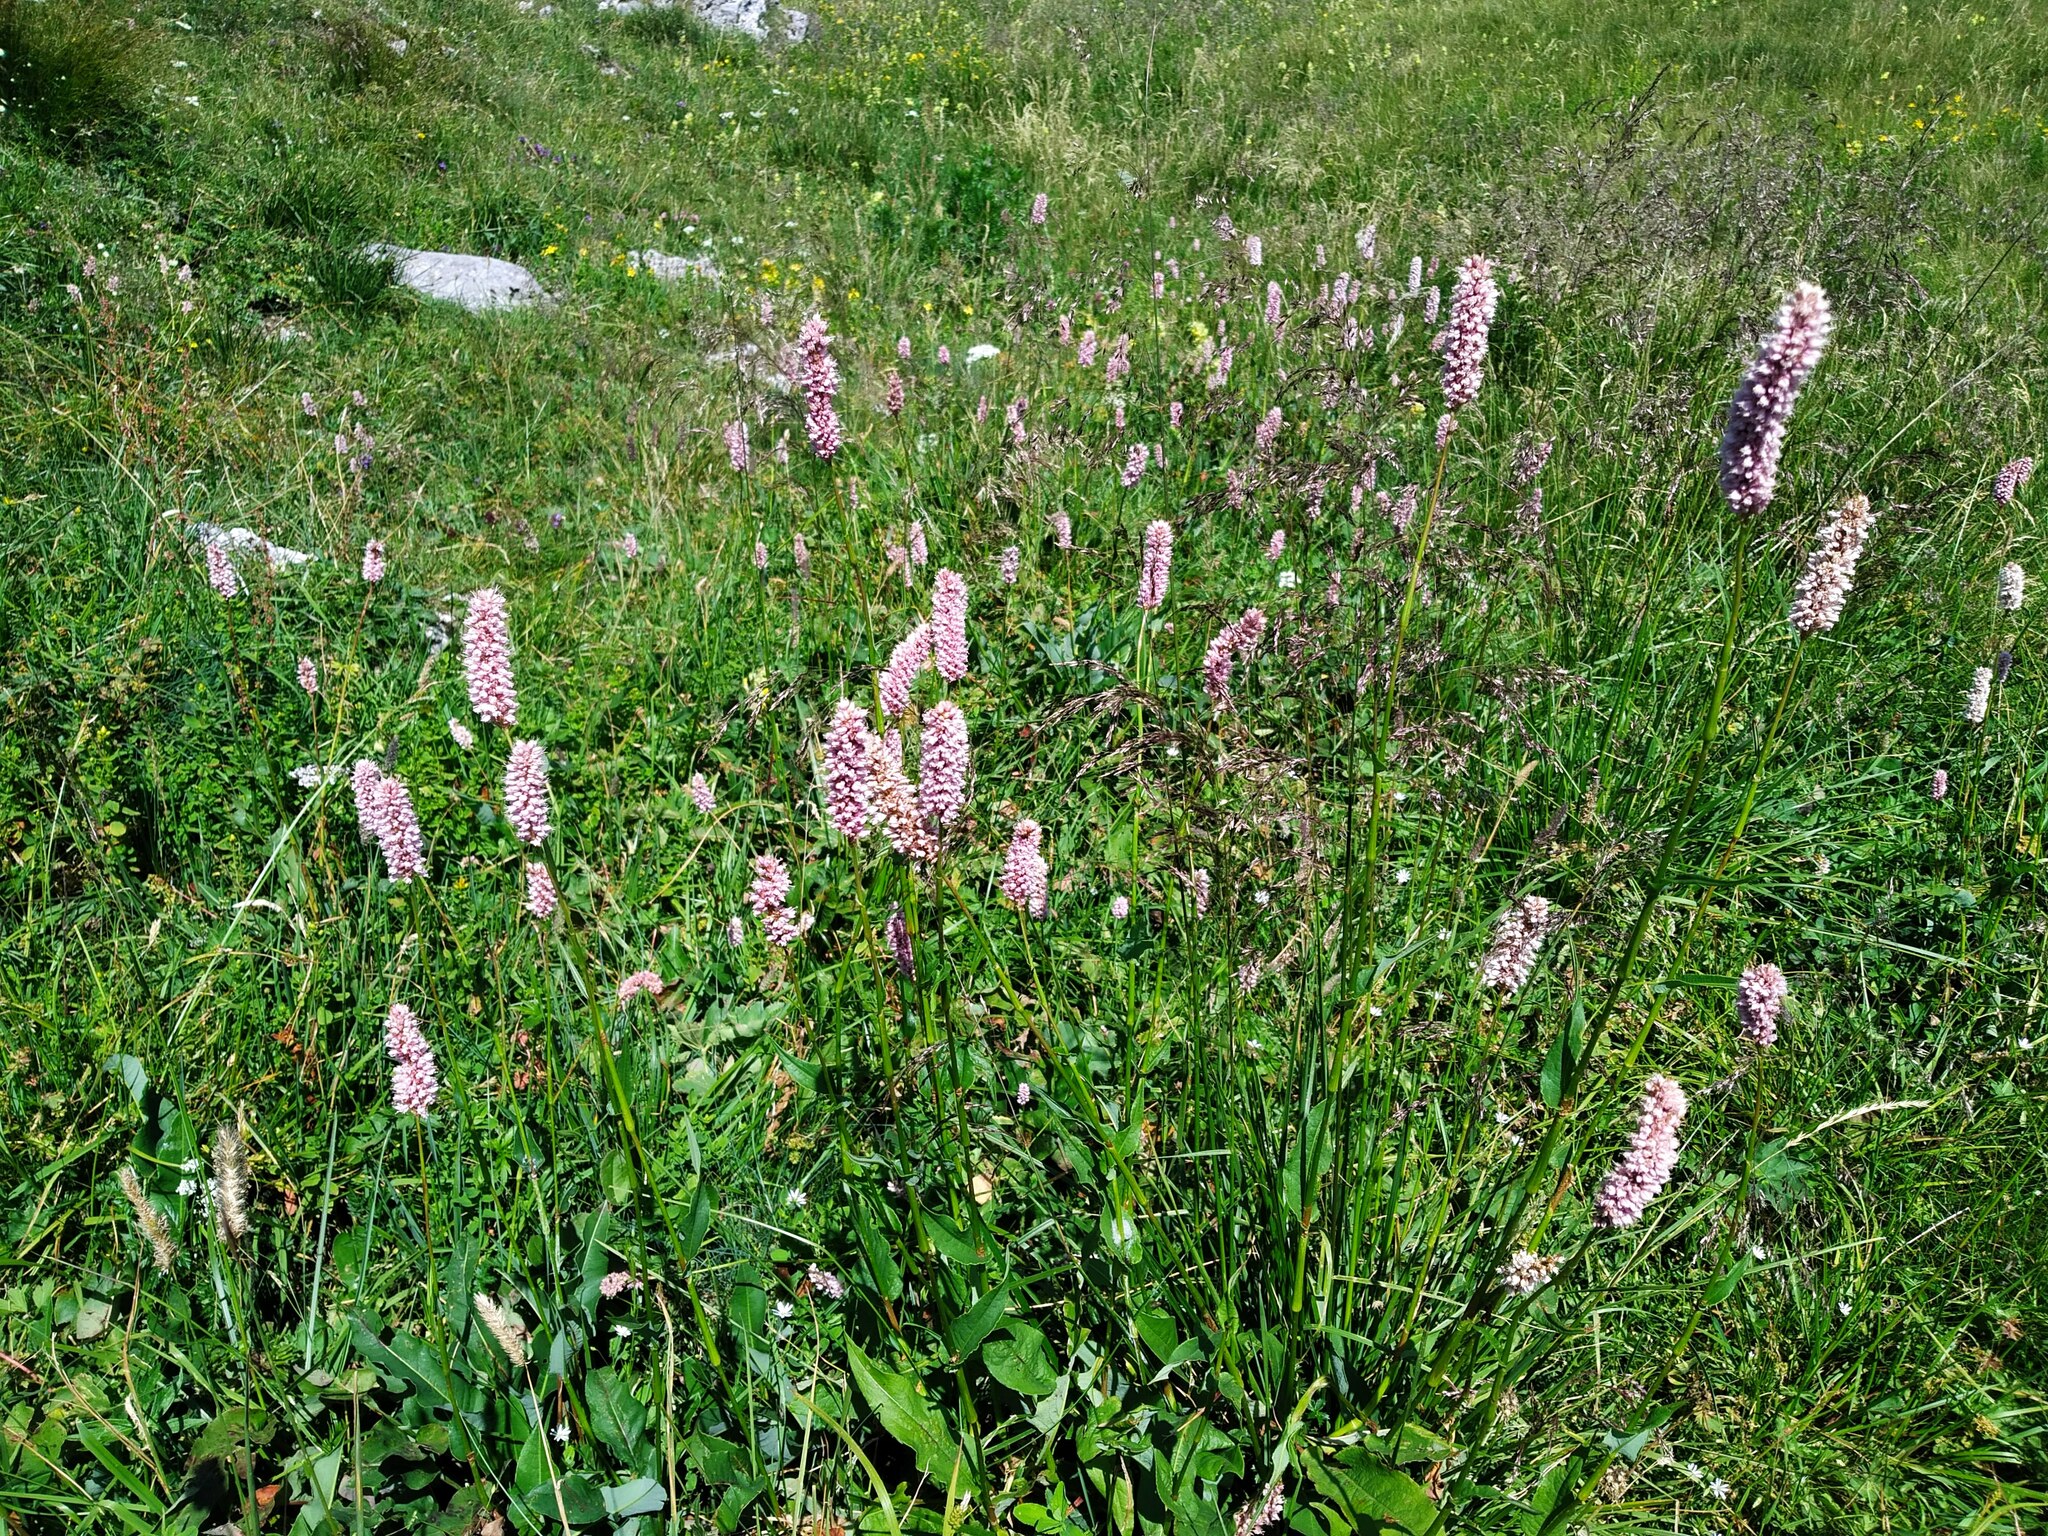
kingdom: Plantae
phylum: Tracheophyta
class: Magnoliopsida
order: Caryophyllales
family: Polygonaceae
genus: Bistorta
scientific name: Bistorta officinalis
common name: Common bistort
